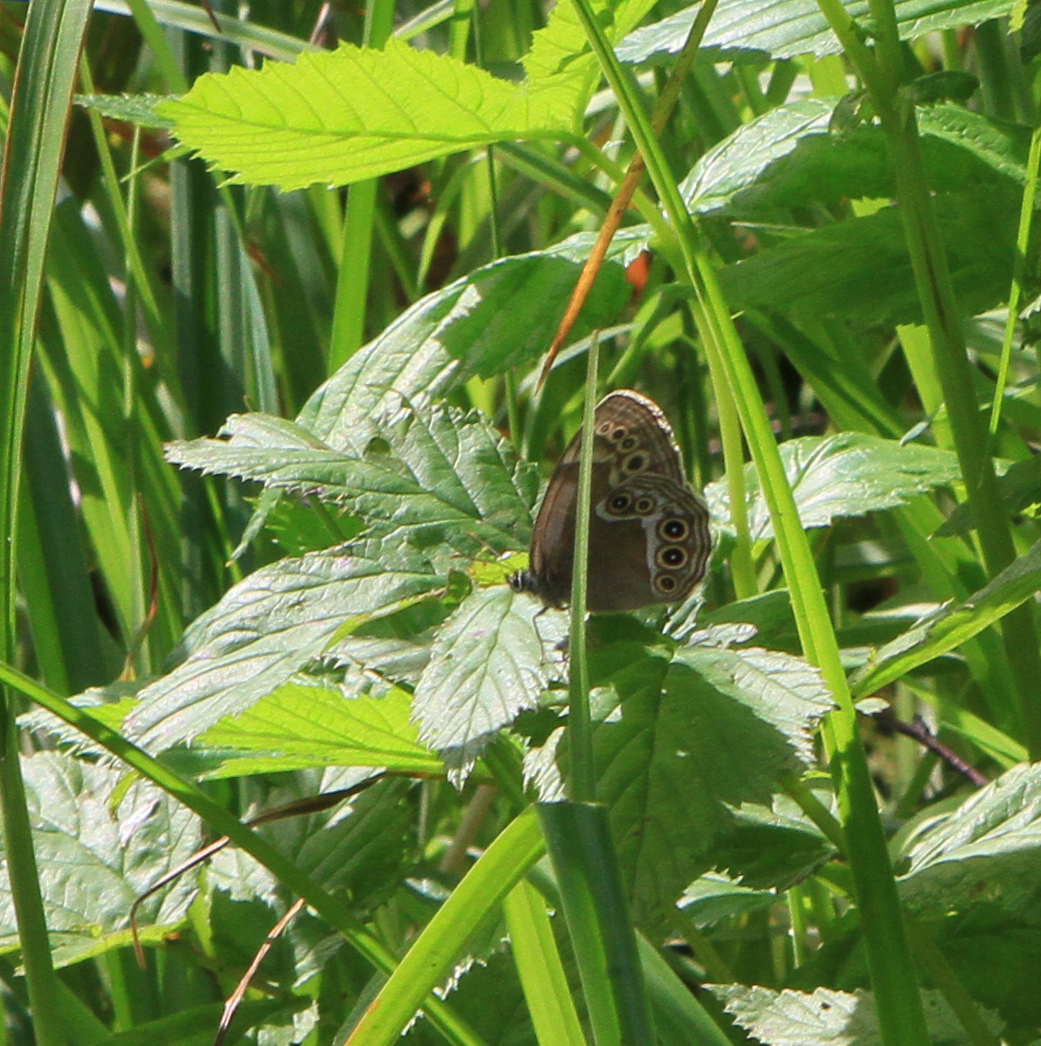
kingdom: Animalia
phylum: Arthropoda
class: Insecta
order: Lepidoptera
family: Nymphalidae
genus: Pararge
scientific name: Pararge Lopinga achine
